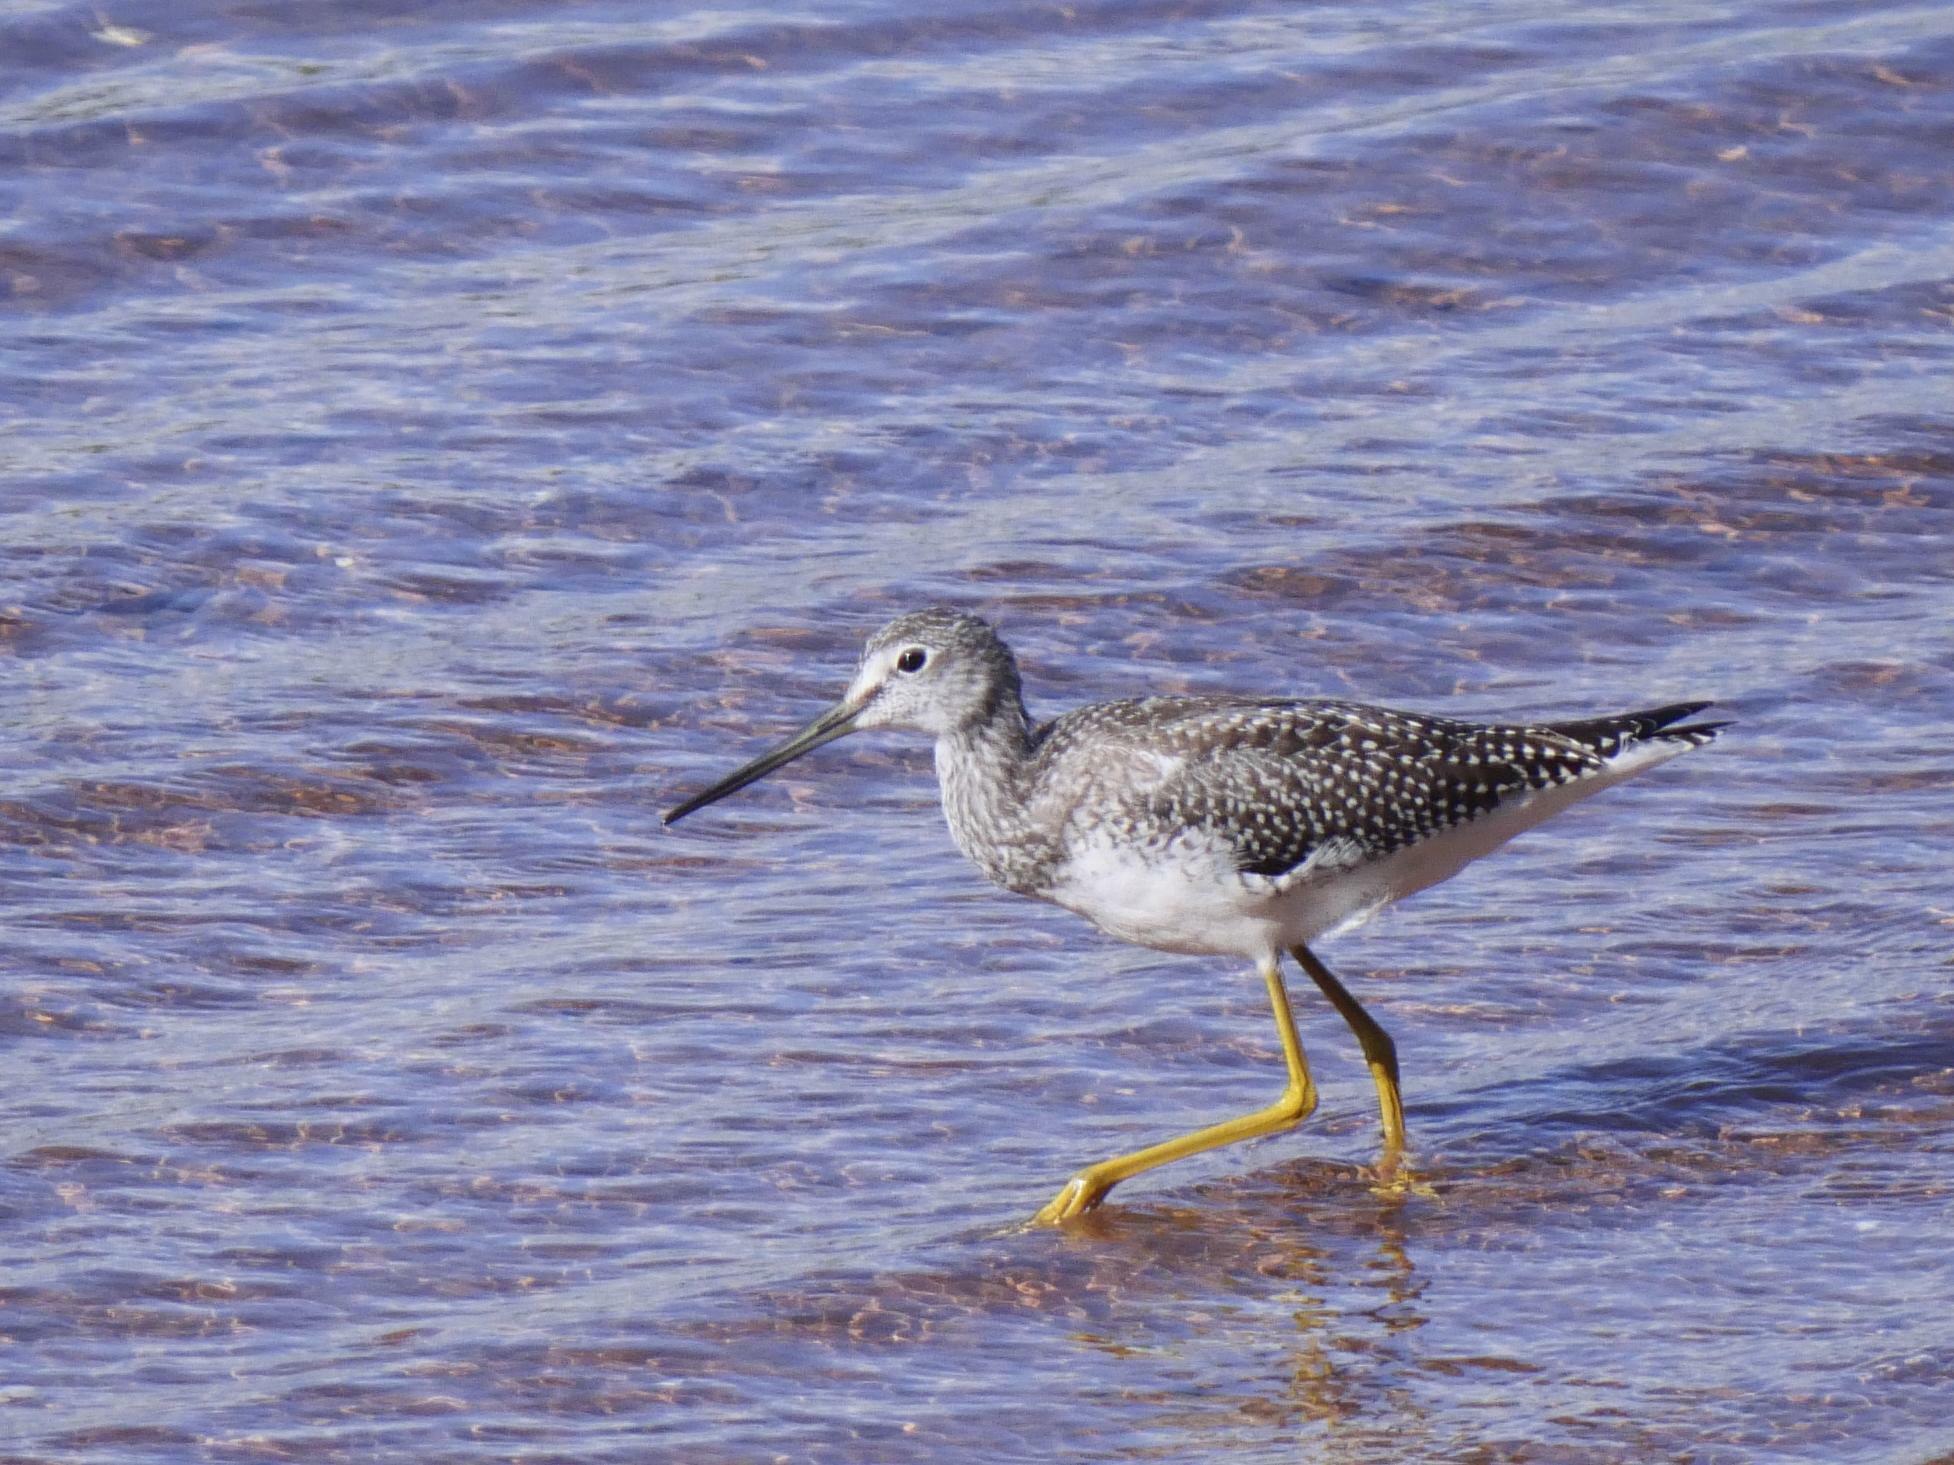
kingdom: Animalia
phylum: Chordata
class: Aves
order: Charadriiformes
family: Scolopacidae
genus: Tringa
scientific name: Tringa melanoleuca
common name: Greater yellowlegs
